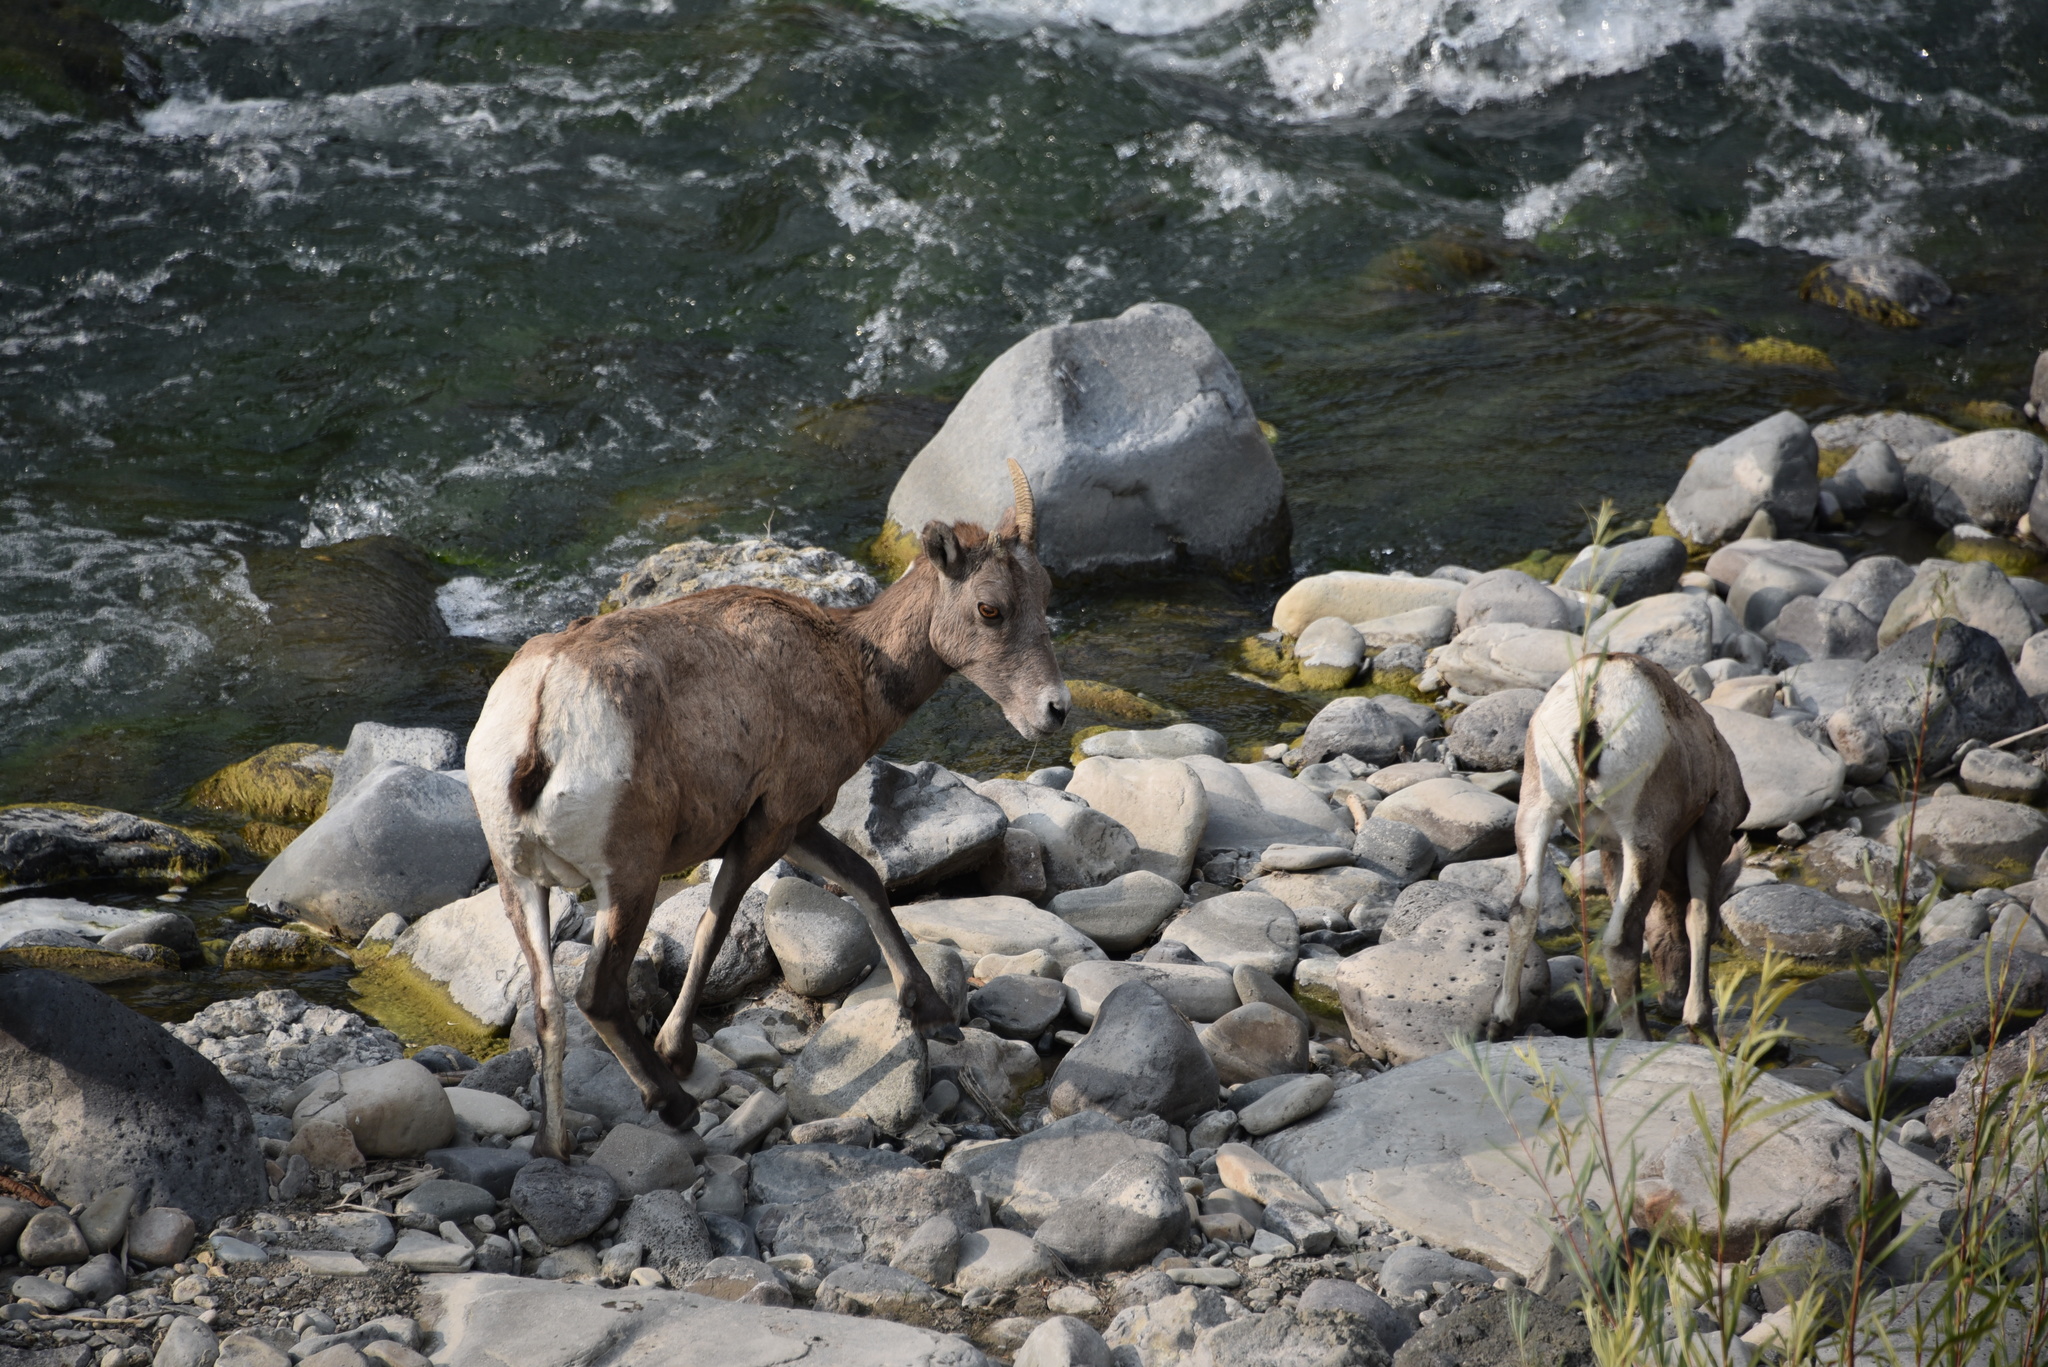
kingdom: Animalia
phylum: Chordata
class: Mammalia
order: Artiodactyla
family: Bovidae
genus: Ovis
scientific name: Ovis canadensis
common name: Bighorn sheep
